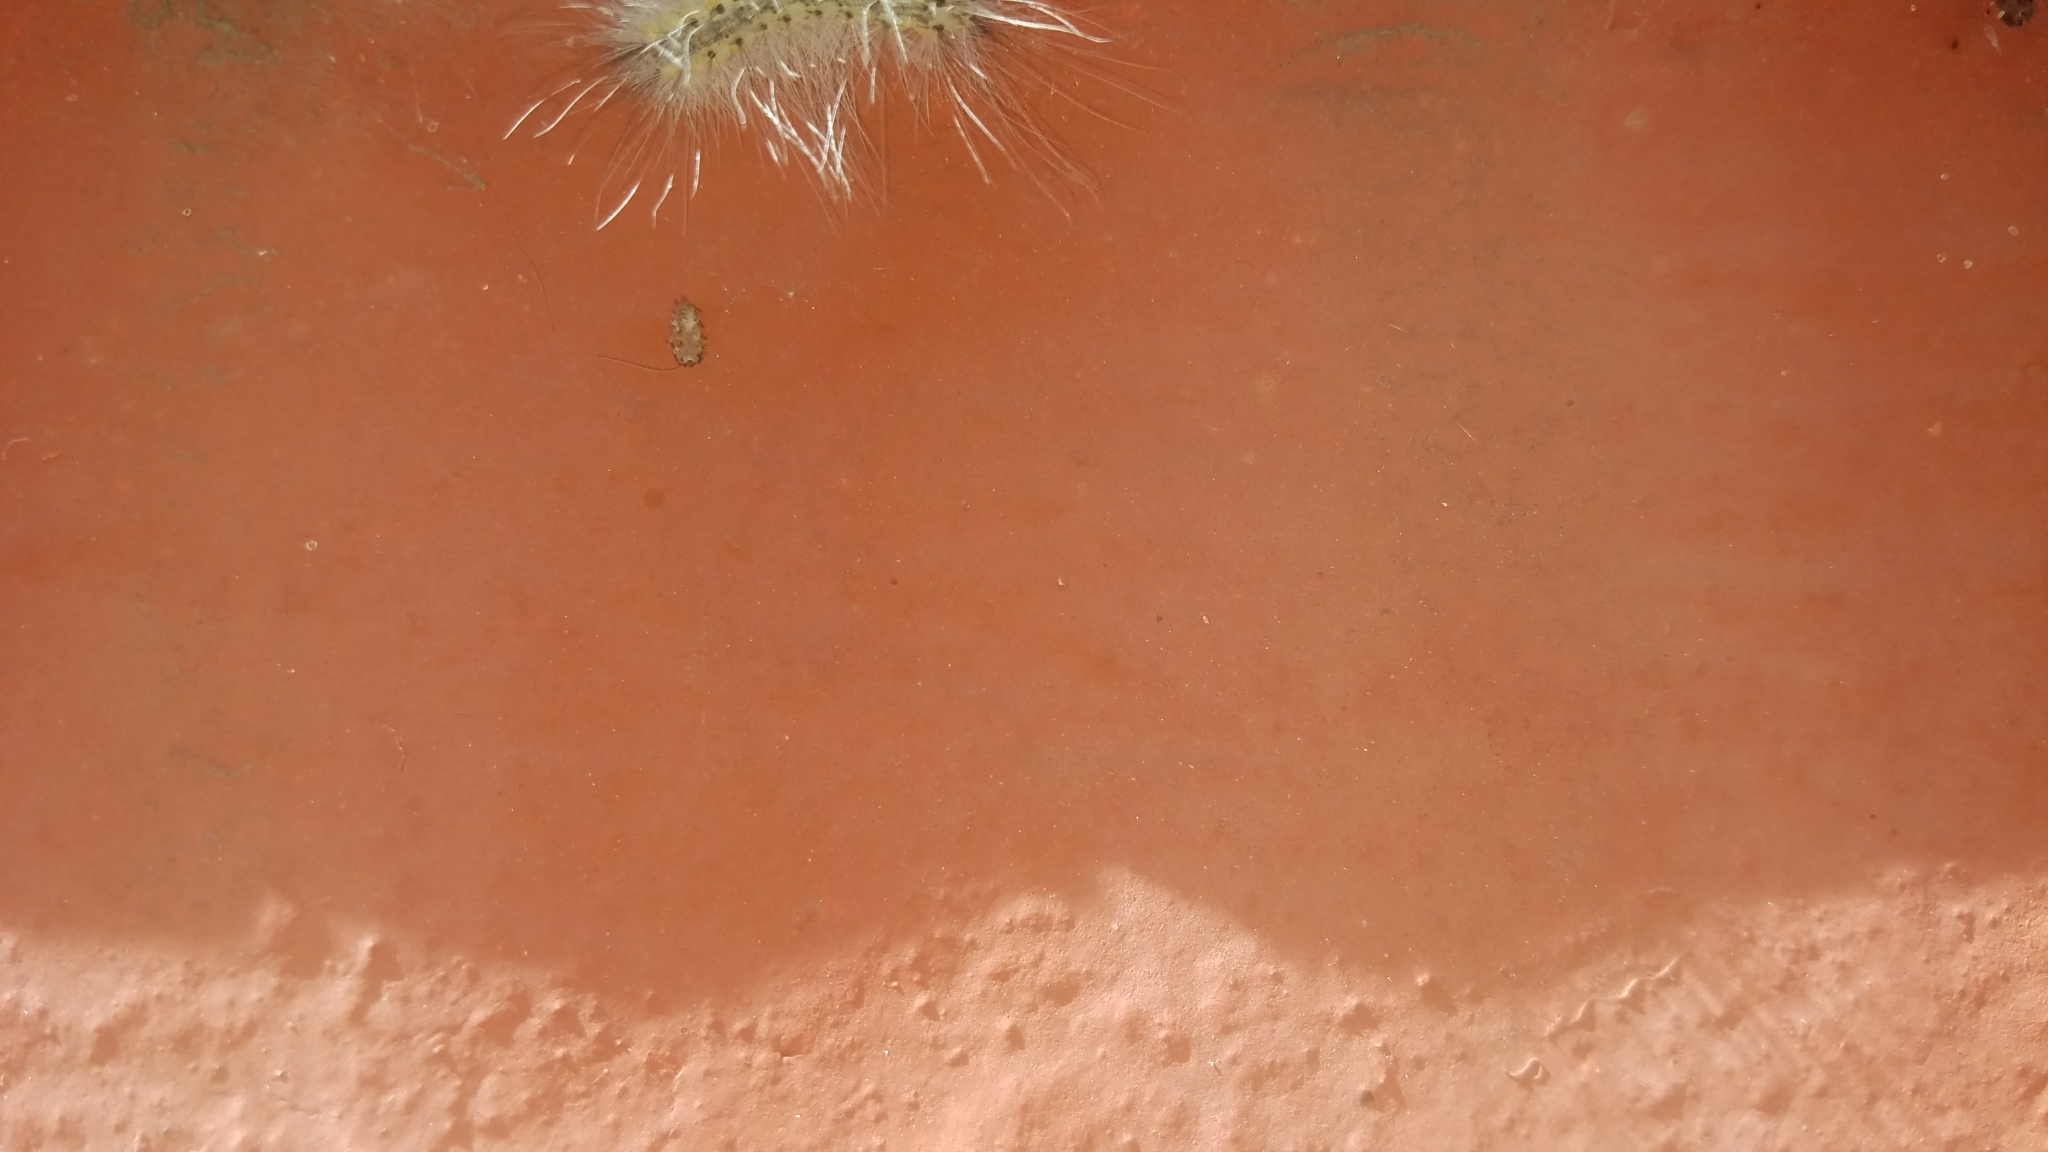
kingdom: Animalia
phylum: Arthropoda
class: Insecta
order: Lepidoptera
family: Erebidae
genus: Hyphantria
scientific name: Hyphantria cunea
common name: American white moth
